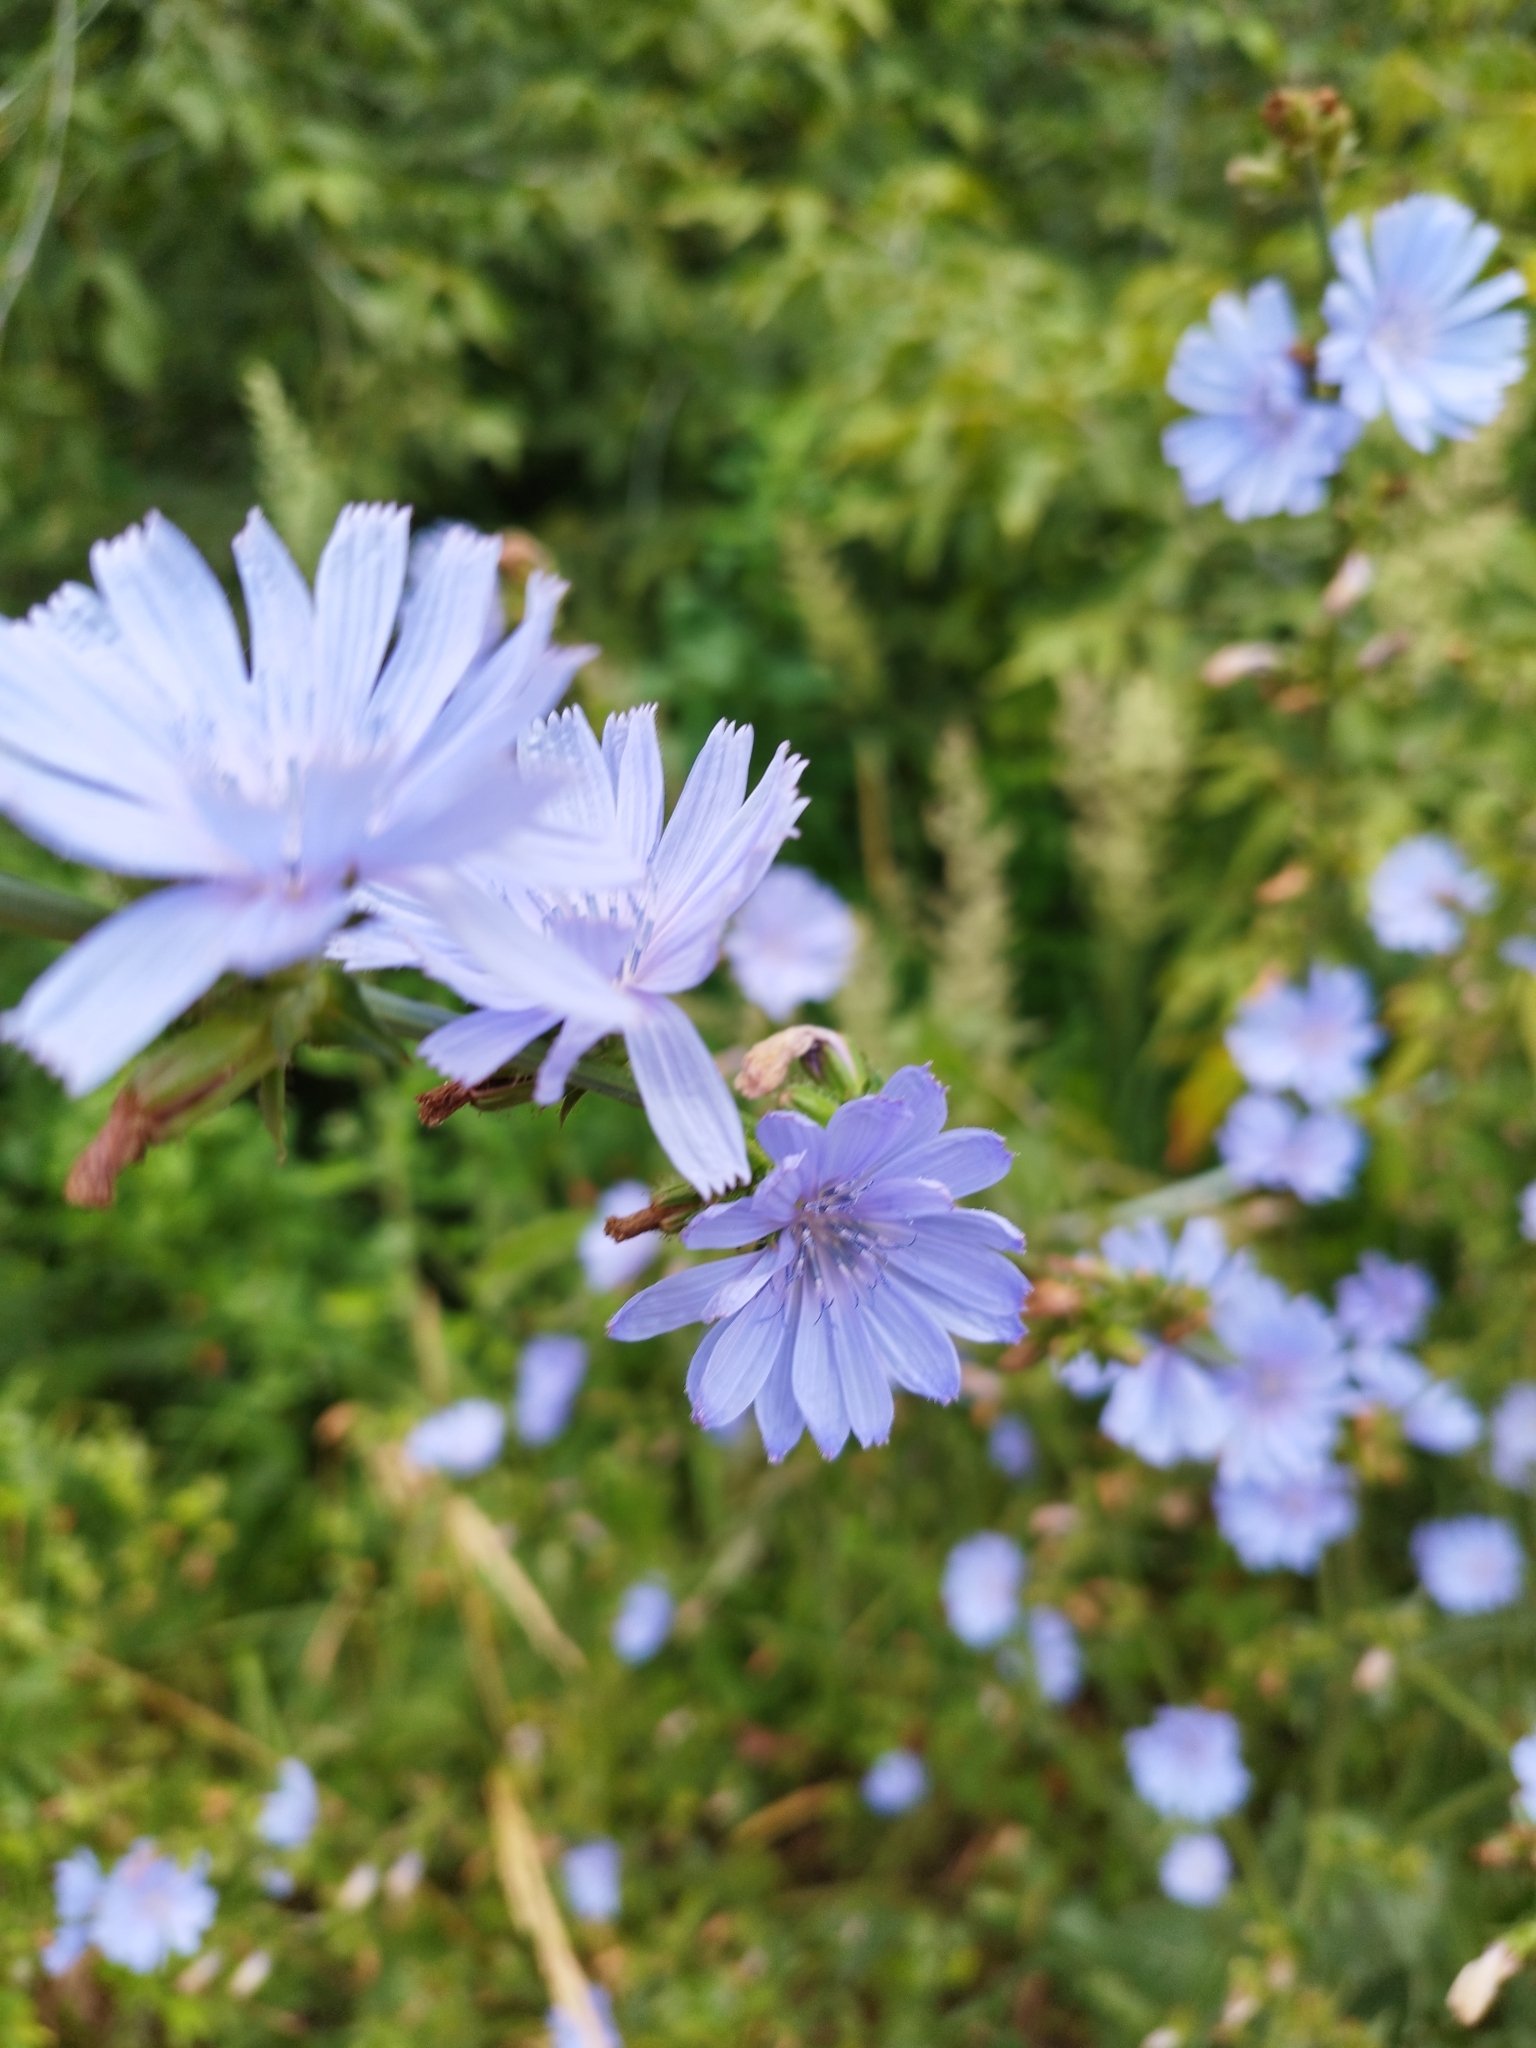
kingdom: Plantae
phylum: Tracheophyta
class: Magnoliopsida
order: Asterales
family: Asteraceae
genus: Cichorium
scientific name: Cichorium intybus
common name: Chicory
